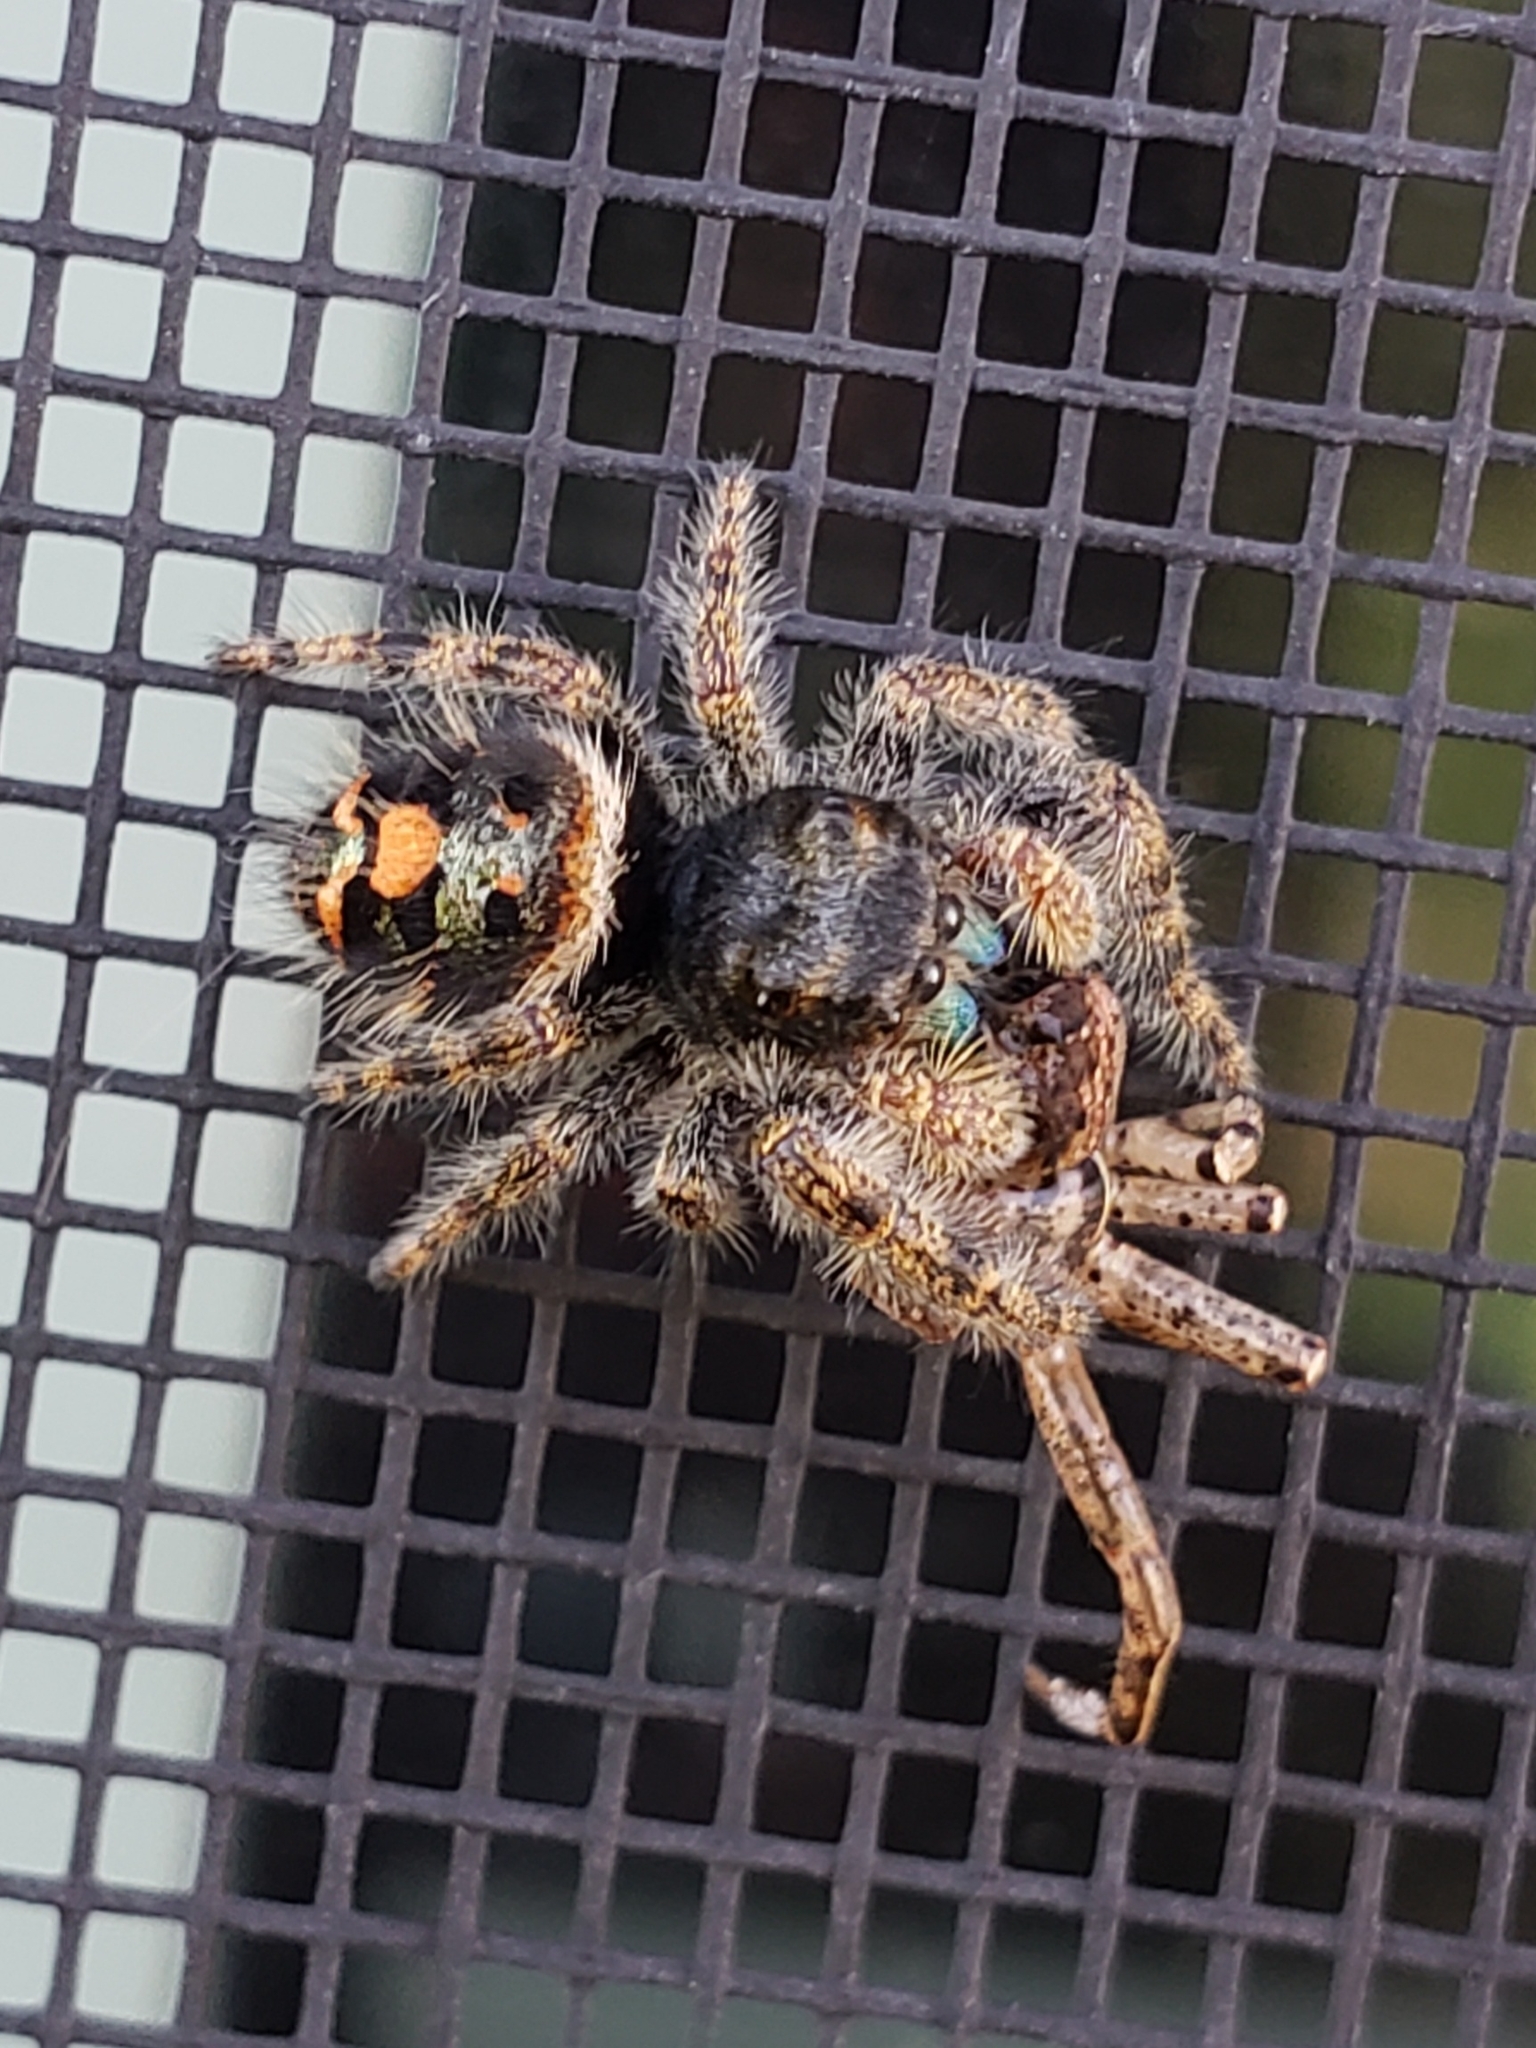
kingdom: Animalia
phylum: Arthropoda
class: Arachnida
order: Araneae
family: Salticidae
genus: Phidippus
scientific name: Phidippus audax
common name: Bold jumper
